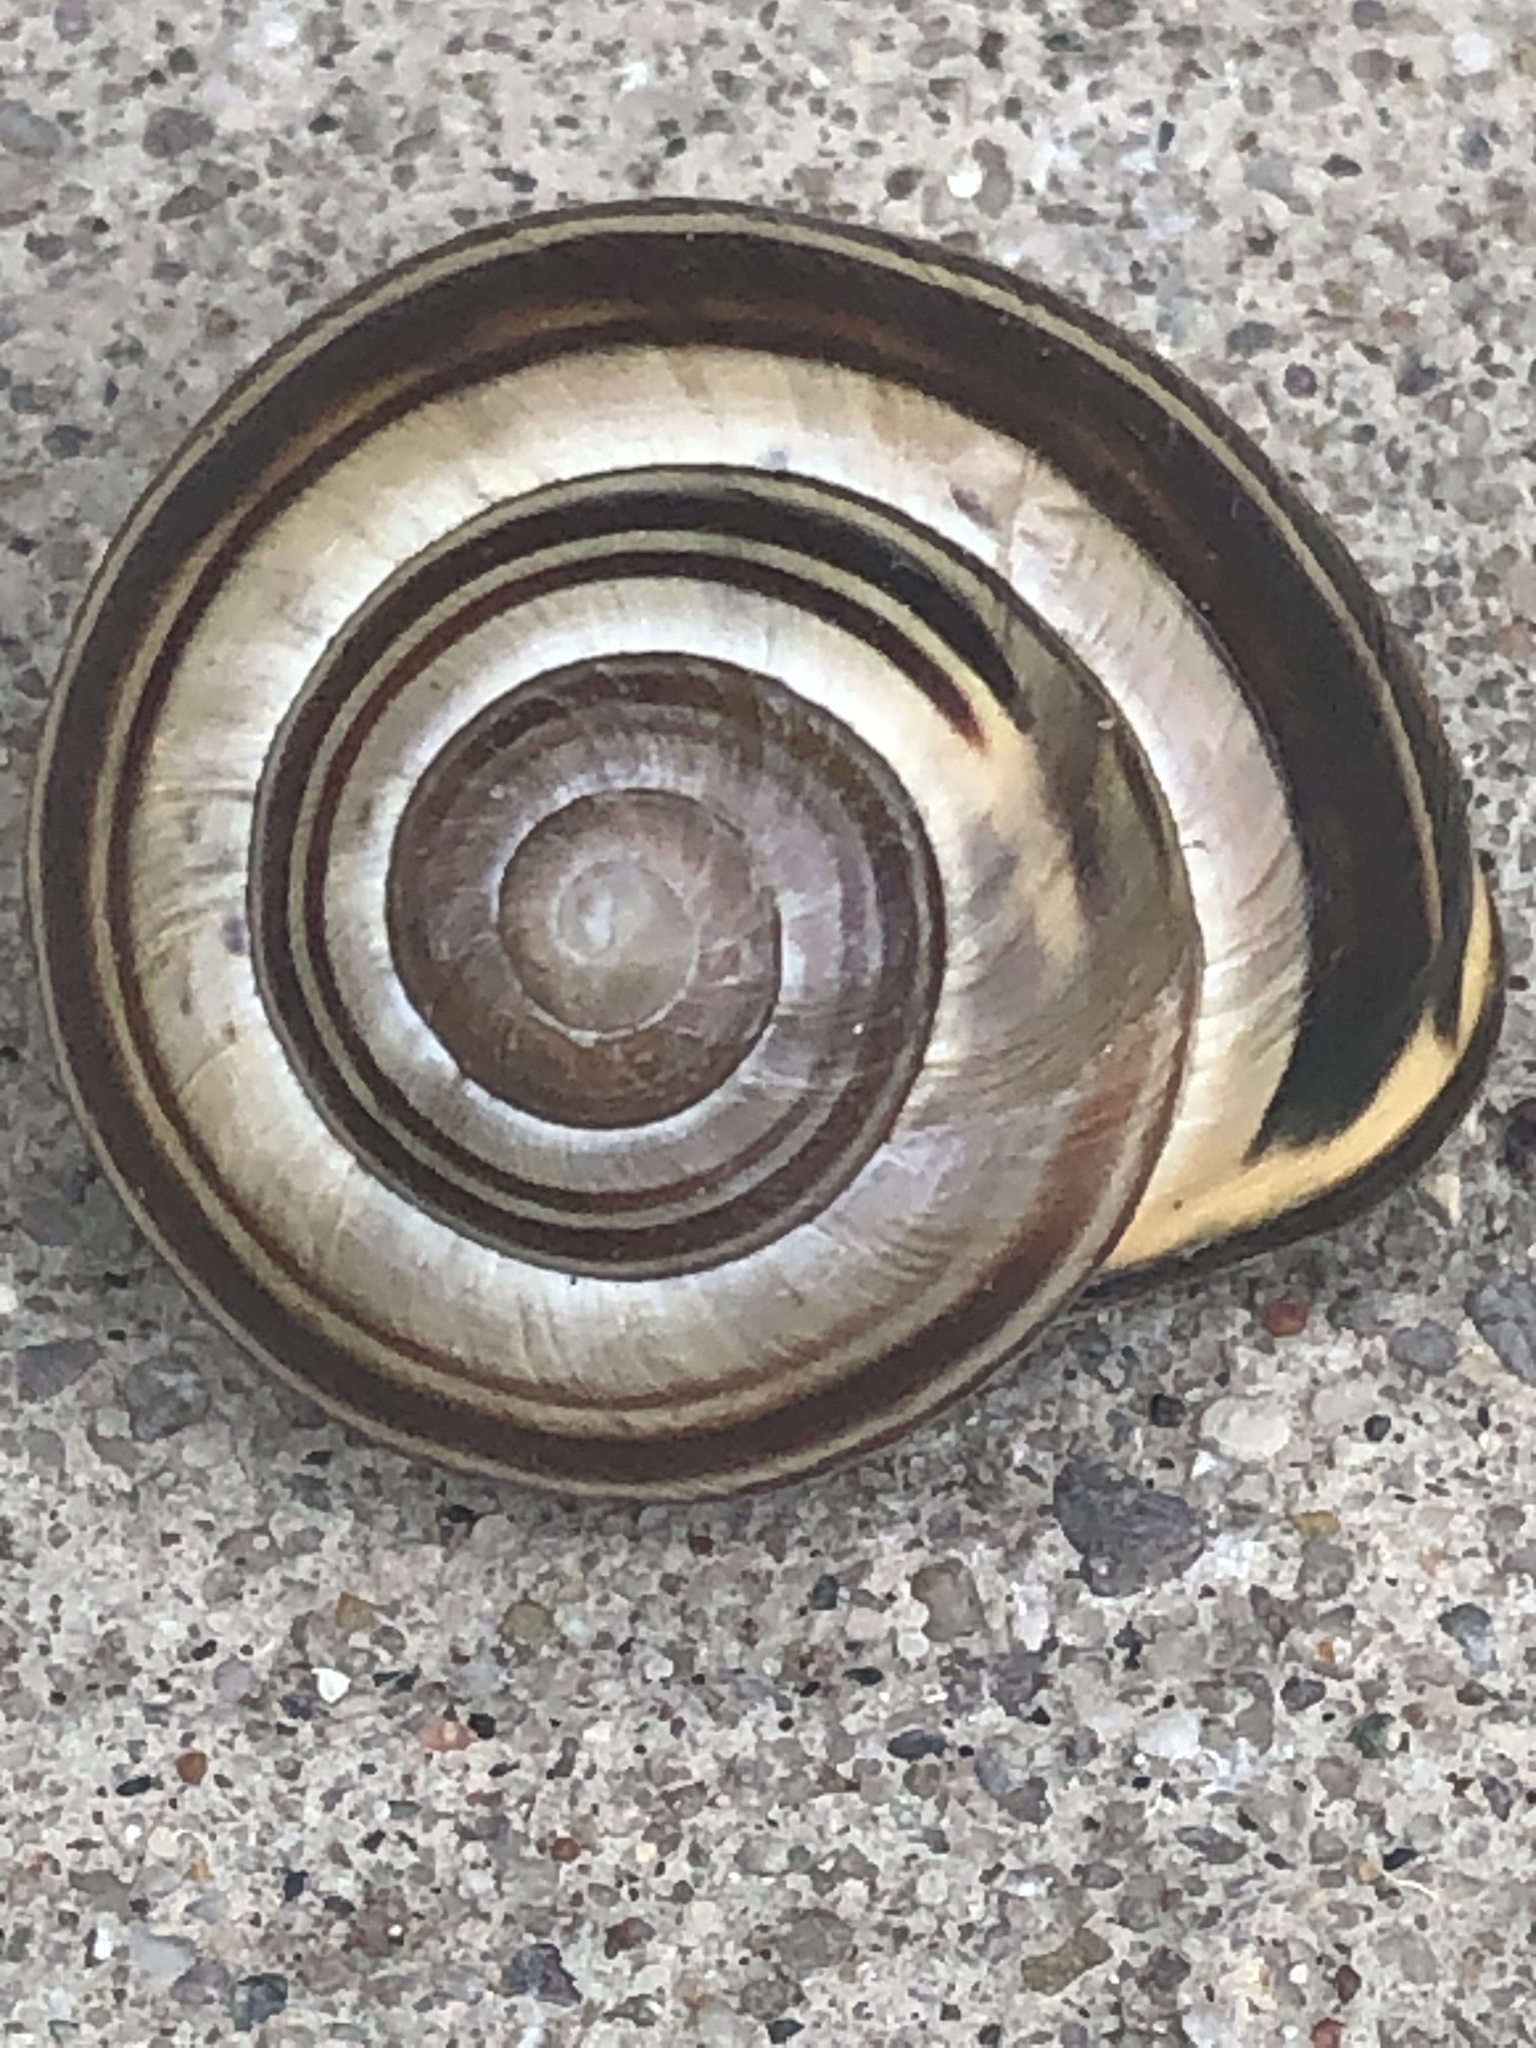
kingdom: Animalia
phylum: Mollusca
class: Gastropoda
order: Stylommatophora
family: Helicidae
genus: Cepaea
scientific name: Cepaea nemoralis
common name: Grovesnail
